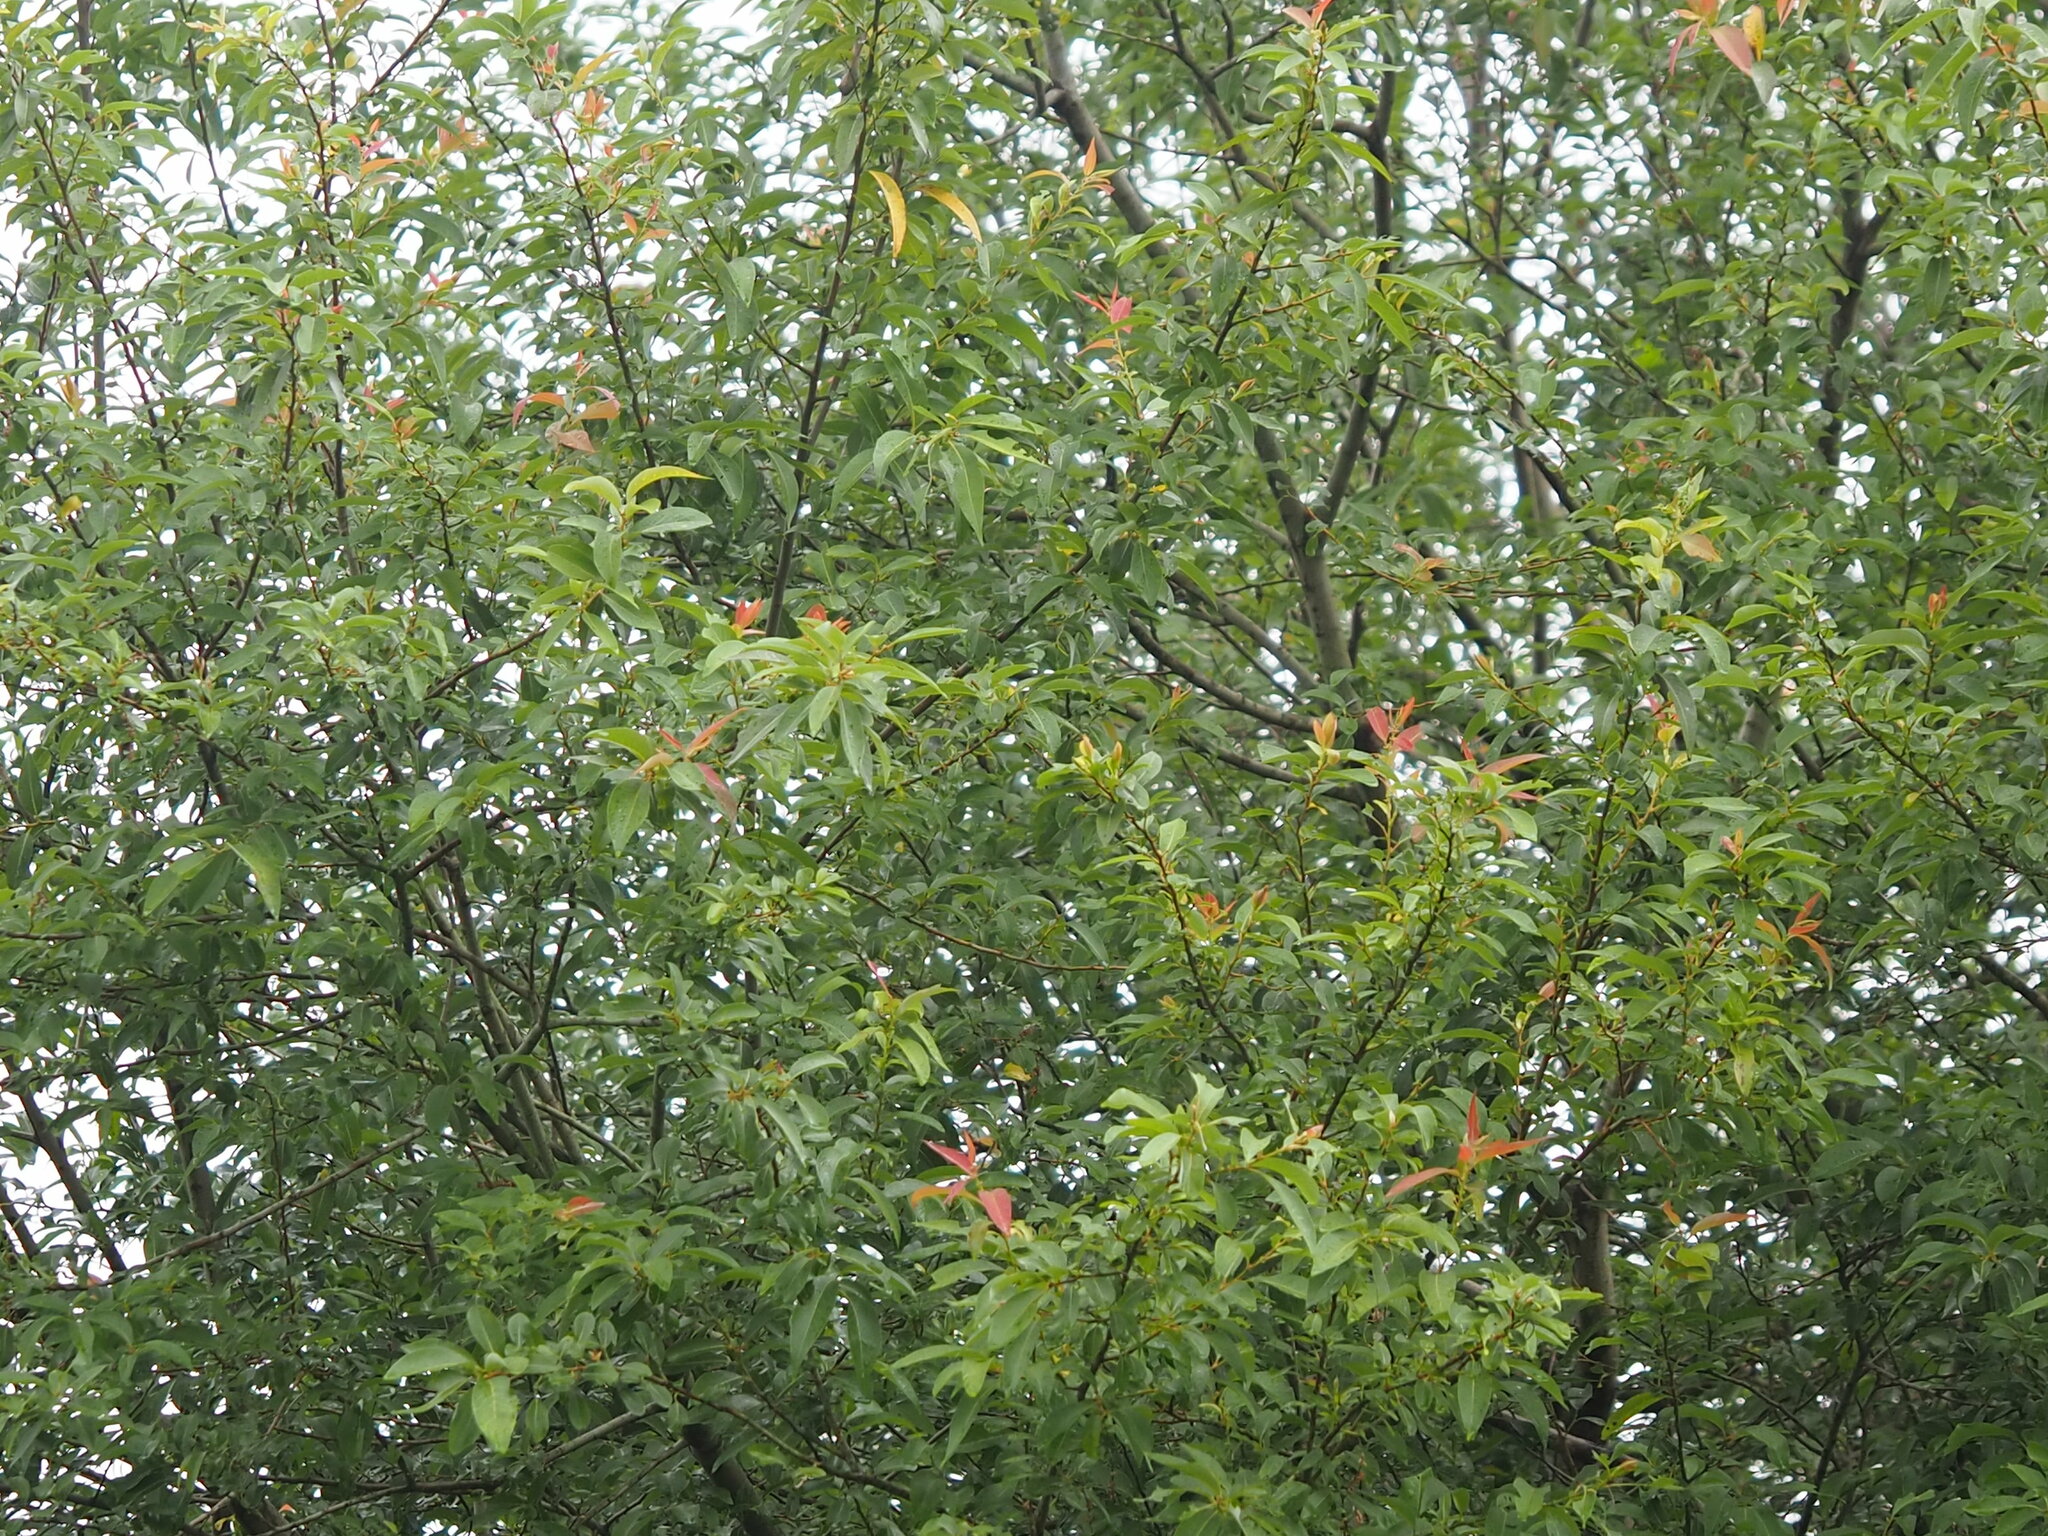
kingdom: Plantae
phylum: Tracheophyta
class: Magnoliopsida
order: Malpighiales
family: Salicaceae
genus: Salix
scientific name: Salix mesnyi
